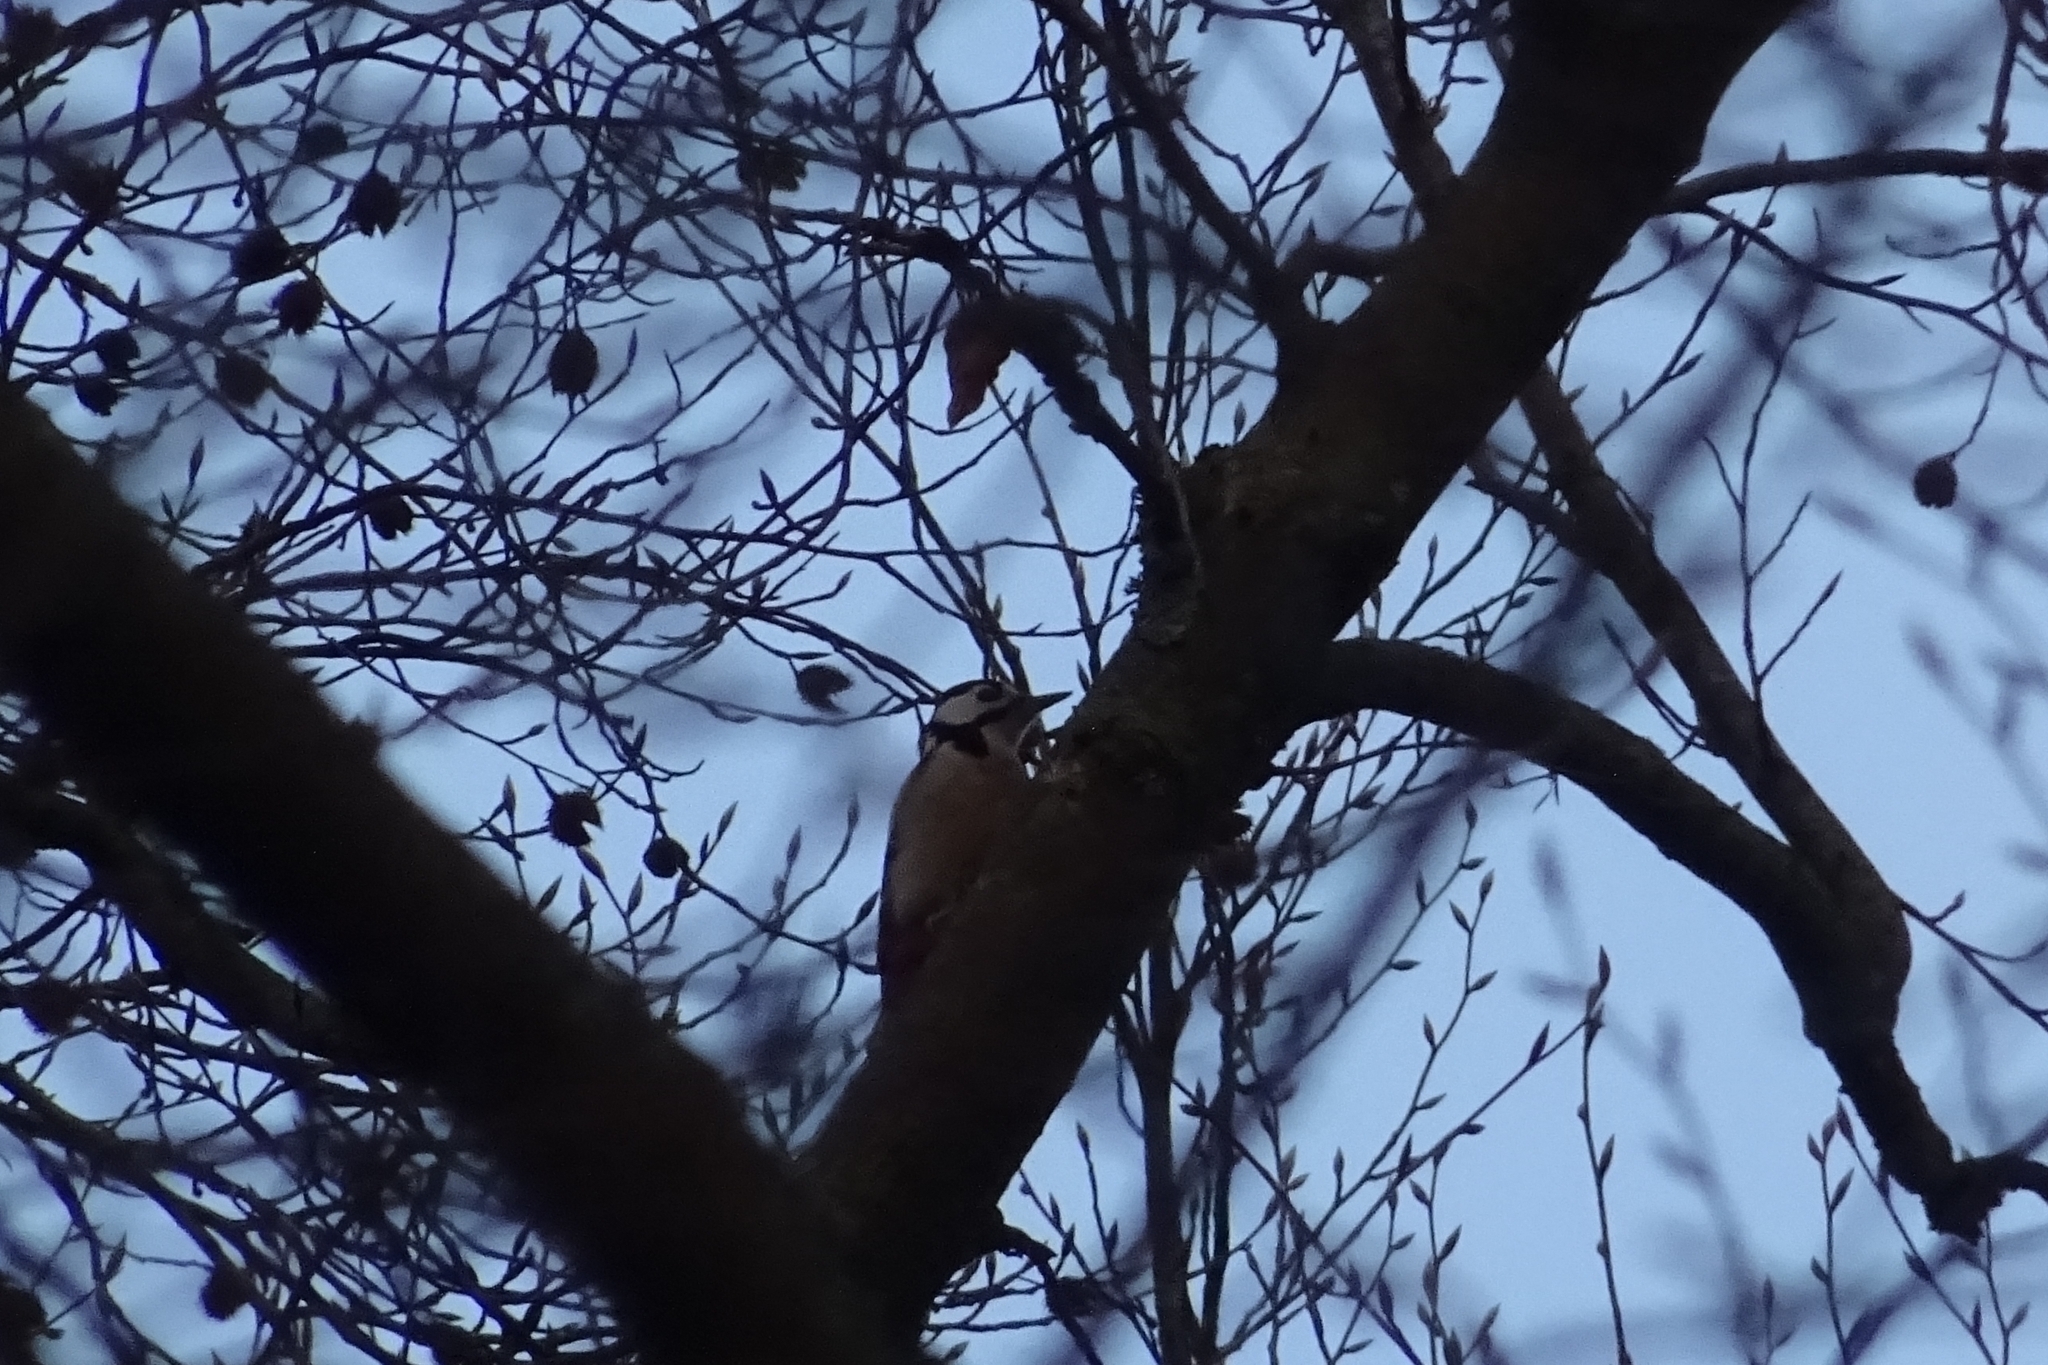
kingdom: Animalia
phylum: Chordata
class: Aves
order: Piciformes
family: Picidae
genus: Dendrocopos
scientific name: Dendrocopos major
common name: Great spotted woodpecker
